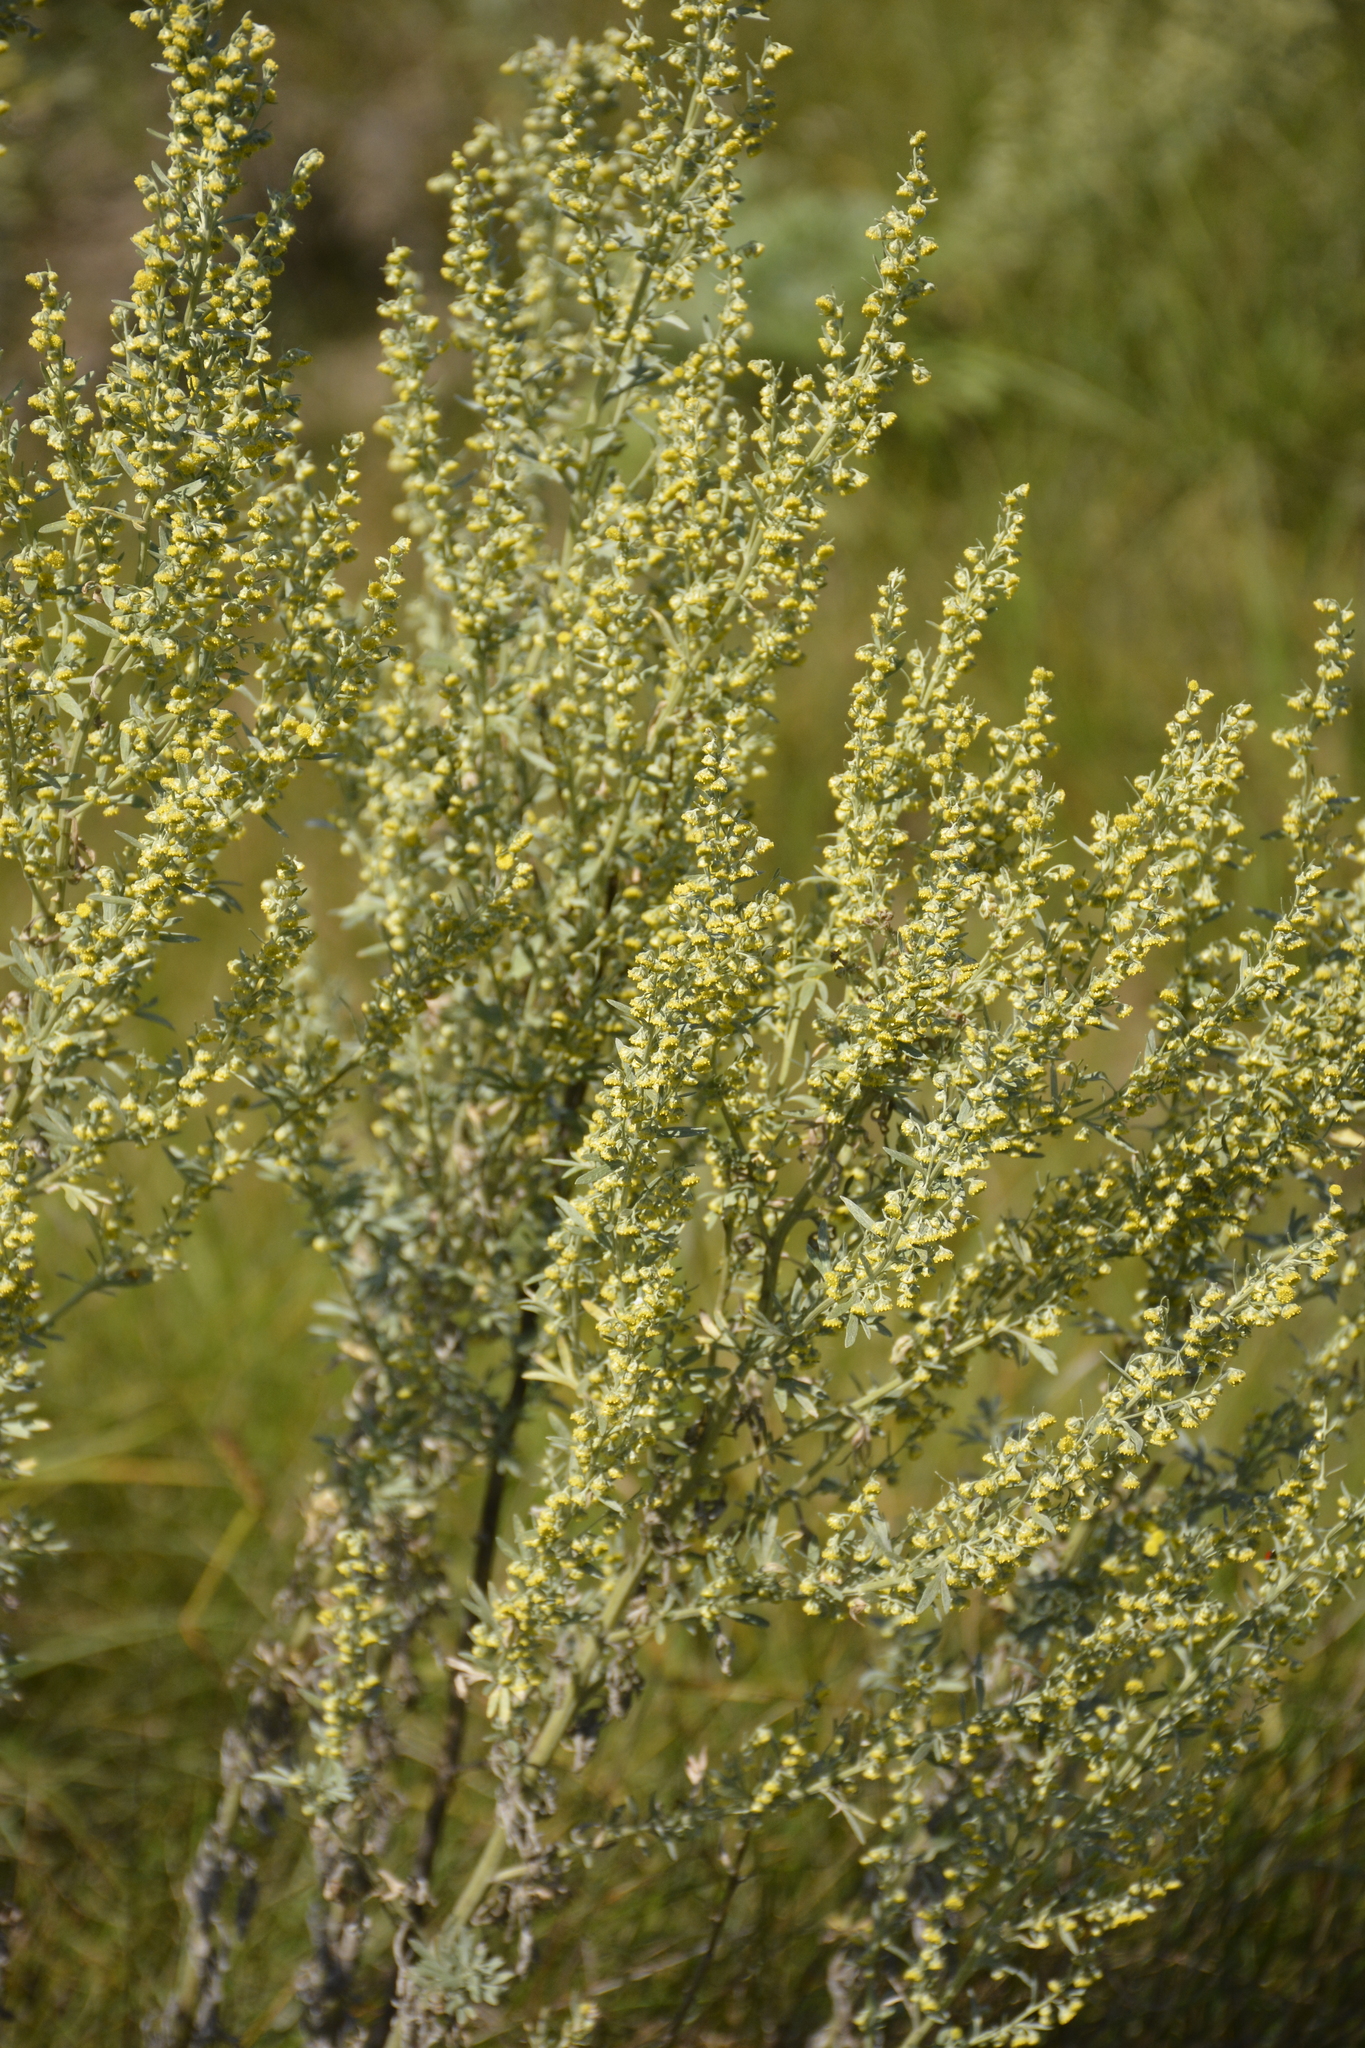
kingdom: Plantae
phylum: Tracheophyta
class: Magnoliopsida
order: Asterales
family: Asteraceae
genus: Artemisia
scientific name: Artemisia absinthium
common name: Wormwood
